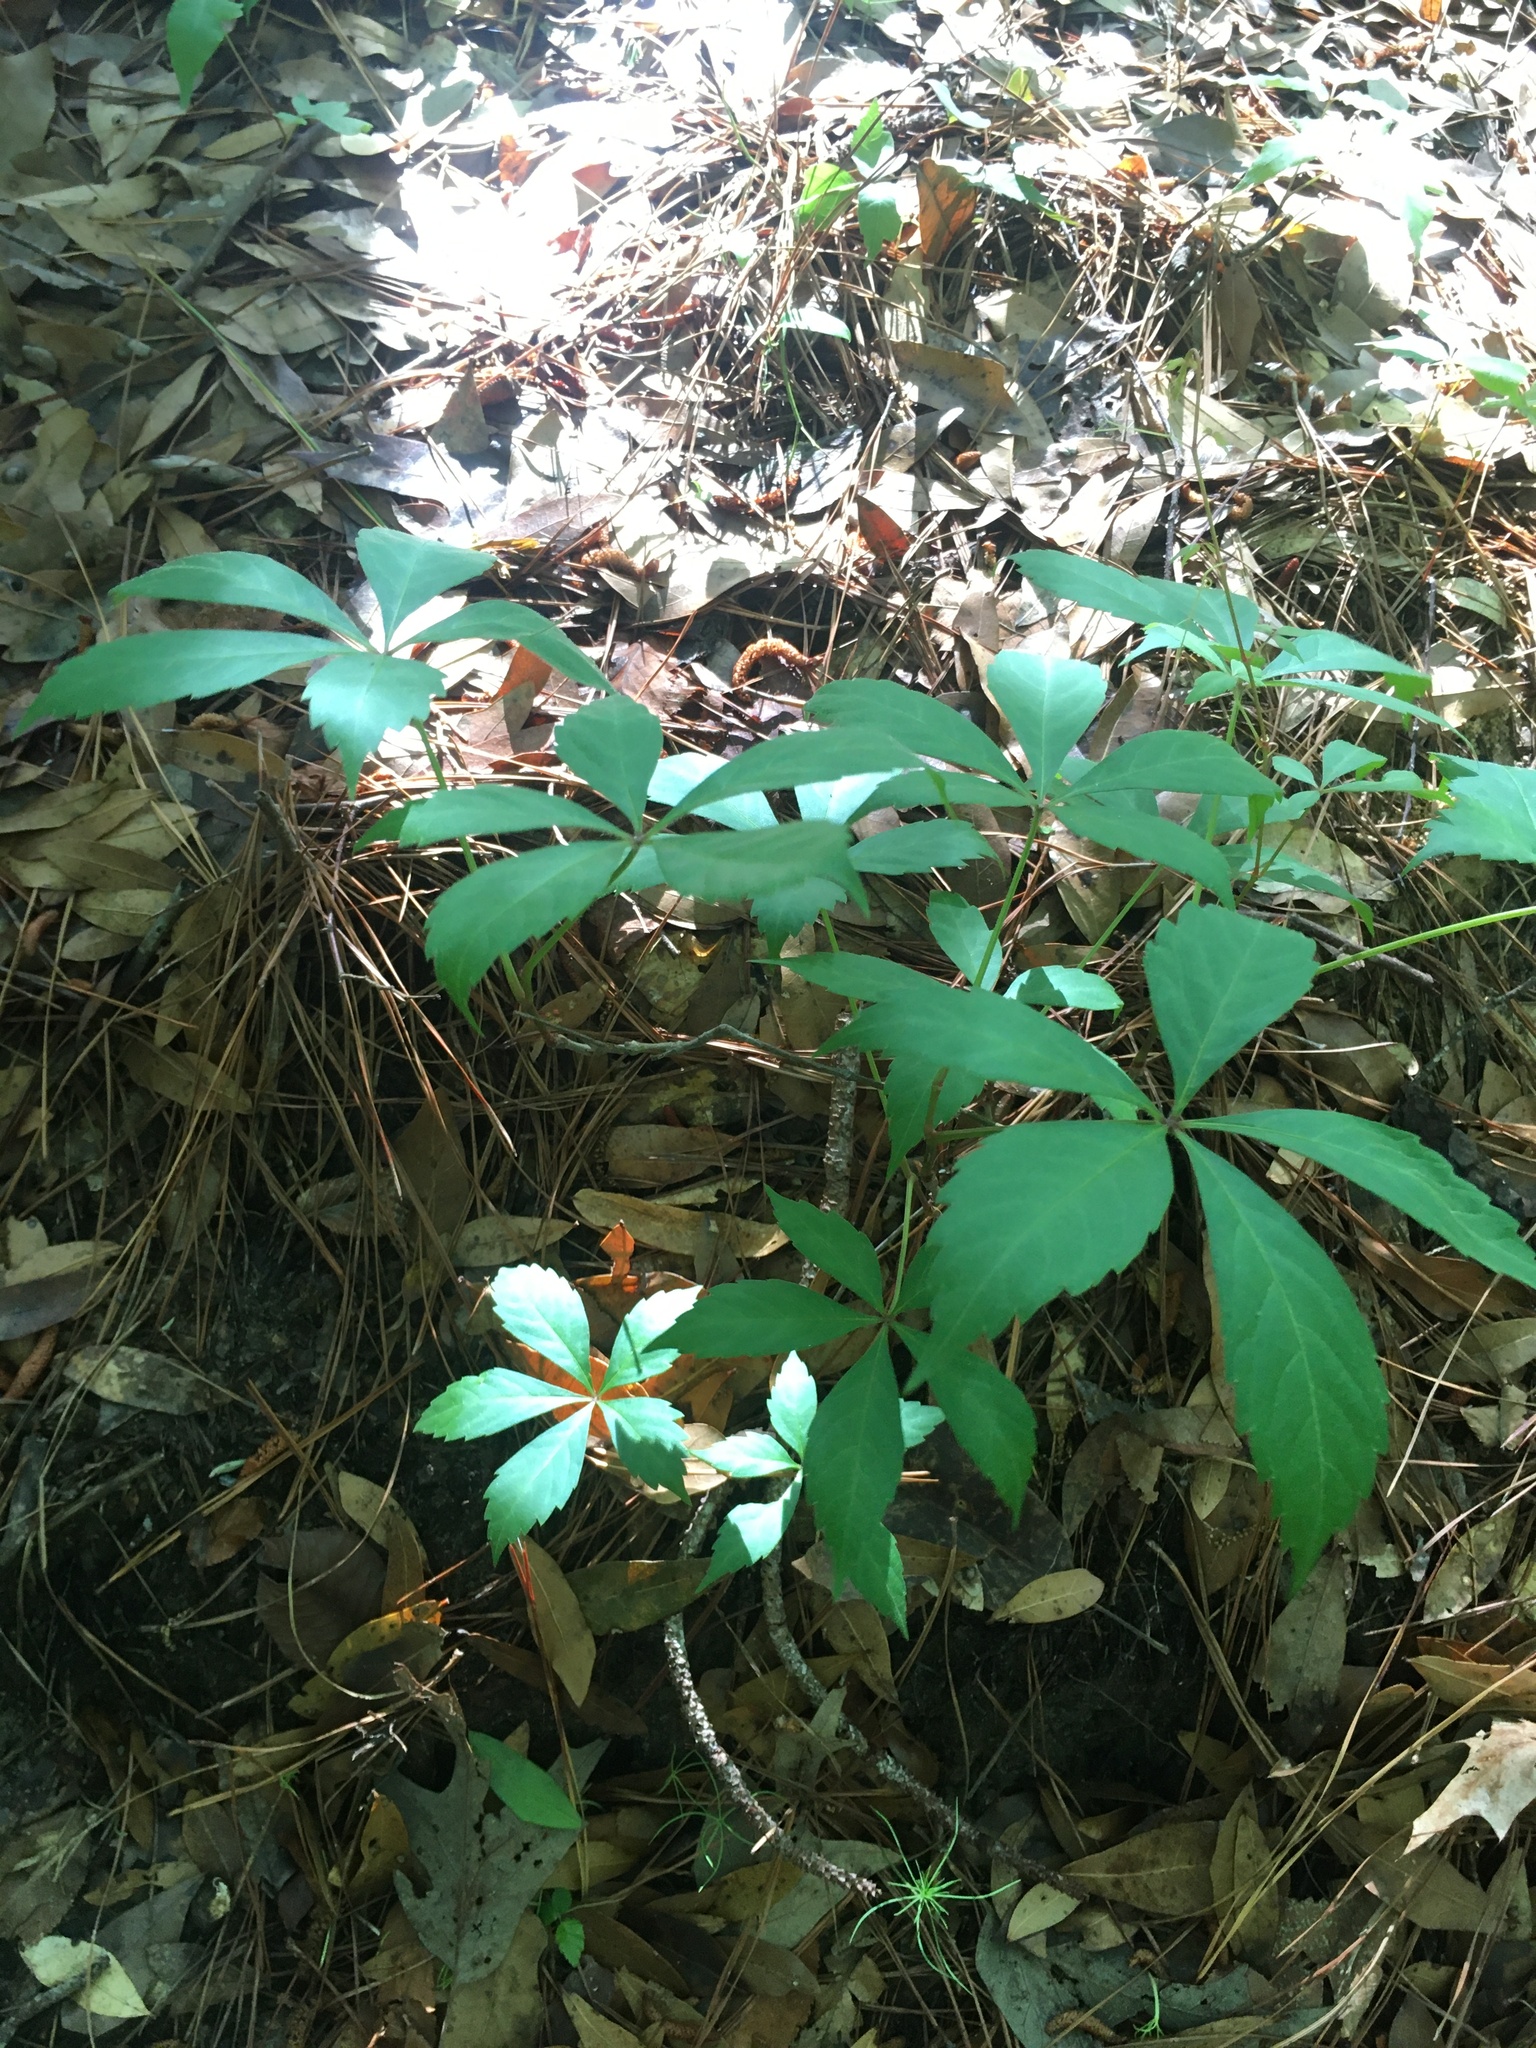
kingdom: Plantae
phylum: Tracheophyta
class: Magnoliopsida
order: Vitales
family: Vitaceae
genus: Parthenocissus
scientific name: Parthenocissus quinquefolia
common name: Virginia-creeper
